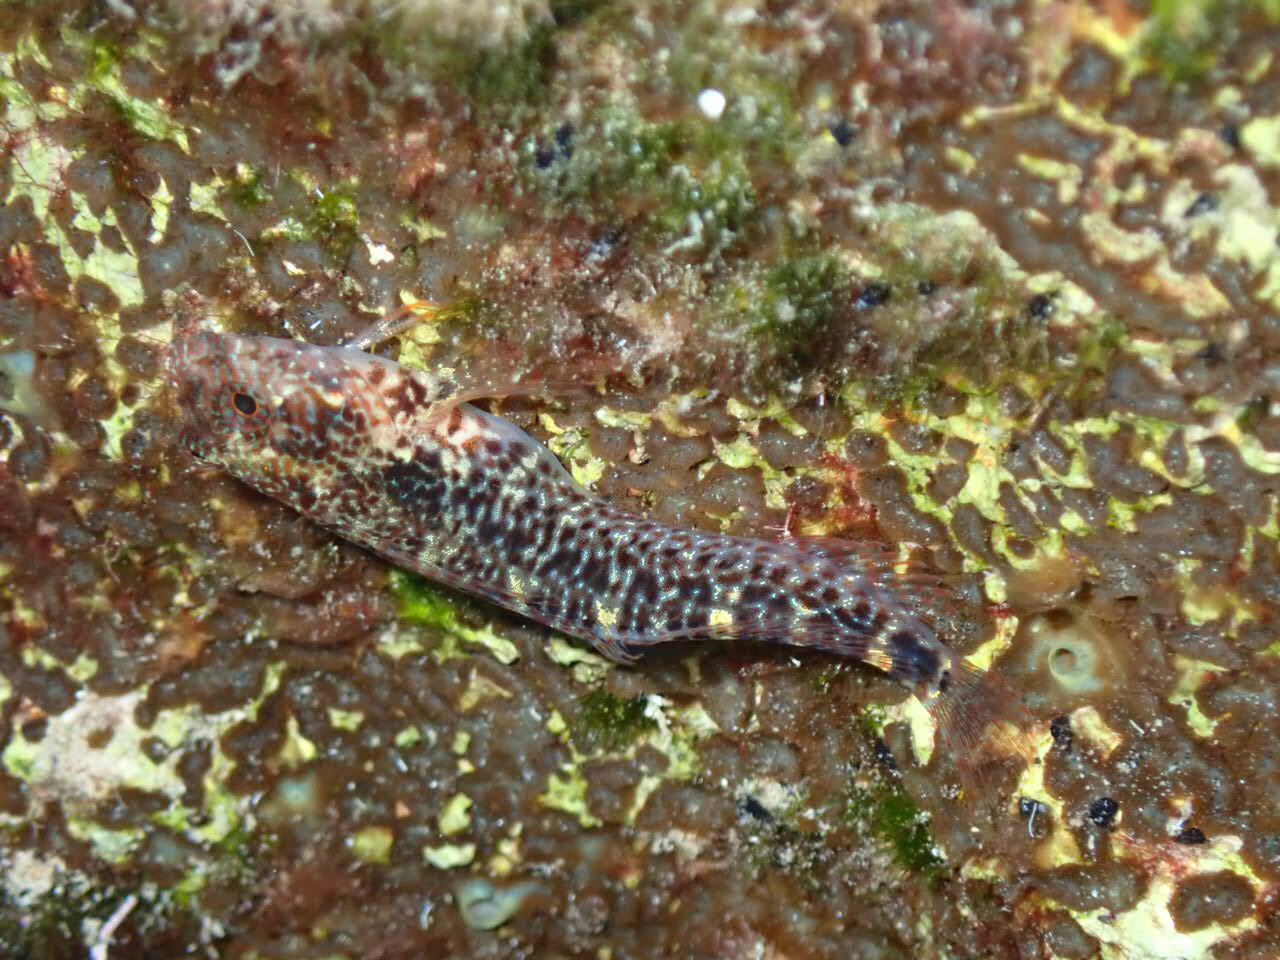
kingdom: Animalia
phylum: Chordata
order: Perciformes
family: Blenniidae
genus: Parablennius
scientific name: Parablennius zvonimiri
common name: Red blenny
